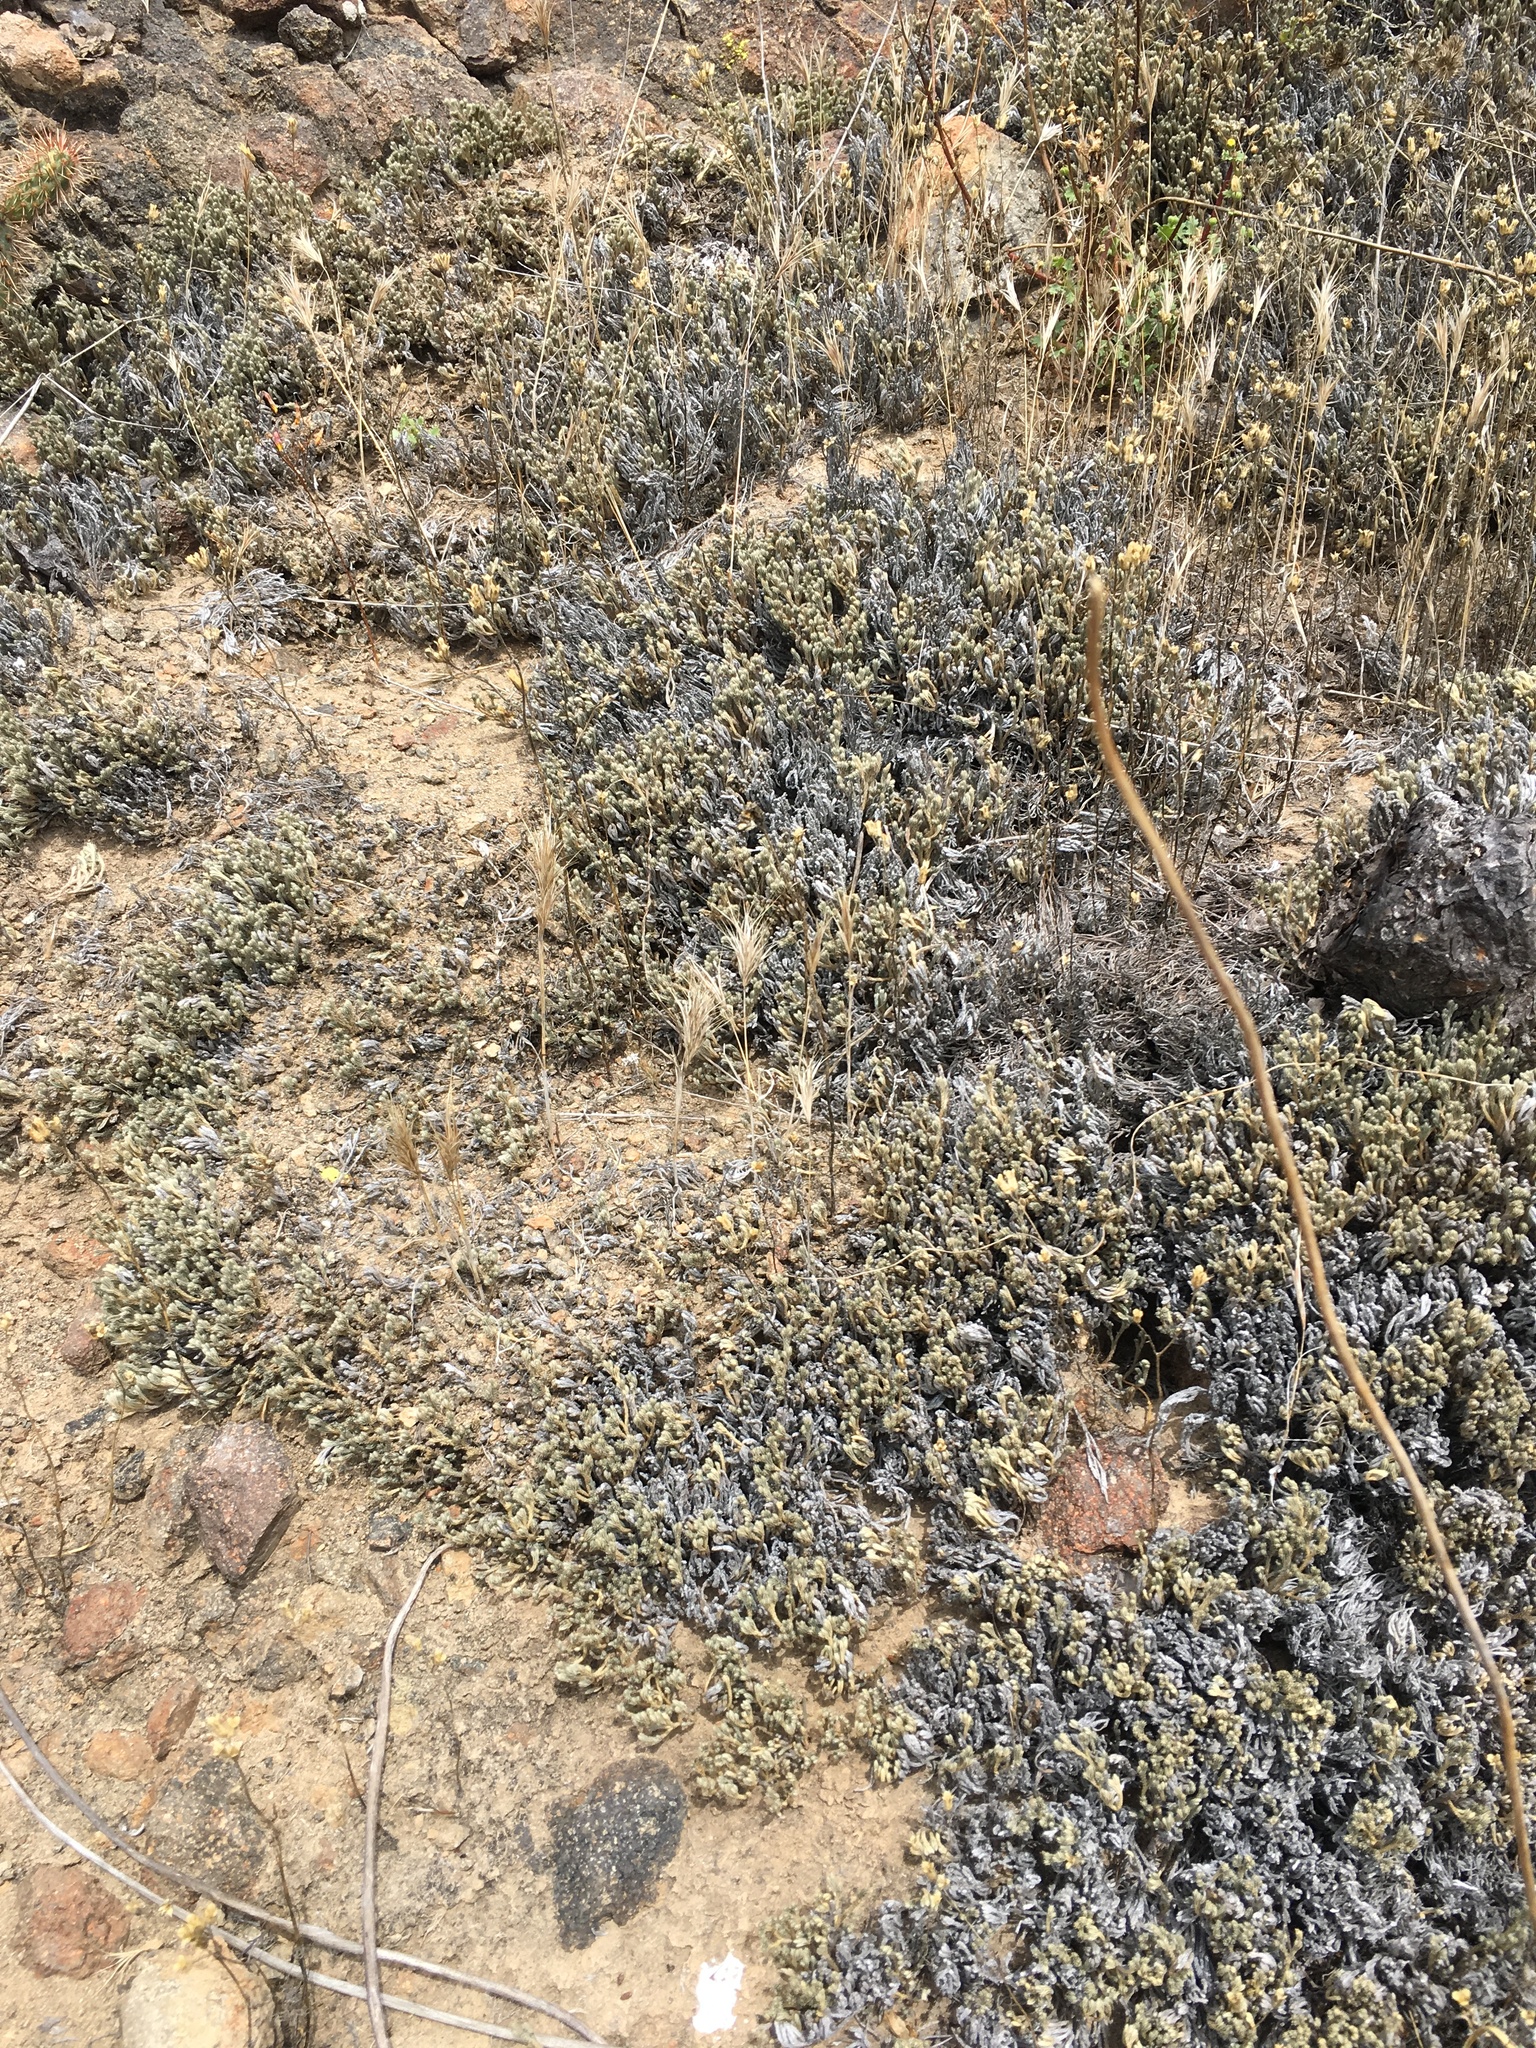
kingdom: Plantae
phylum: Tracheophyta
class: Lycopodiopsida
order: Selaginellales
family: Selaginellaceae
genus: Selaginella
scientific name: Selaginella bigelovii
